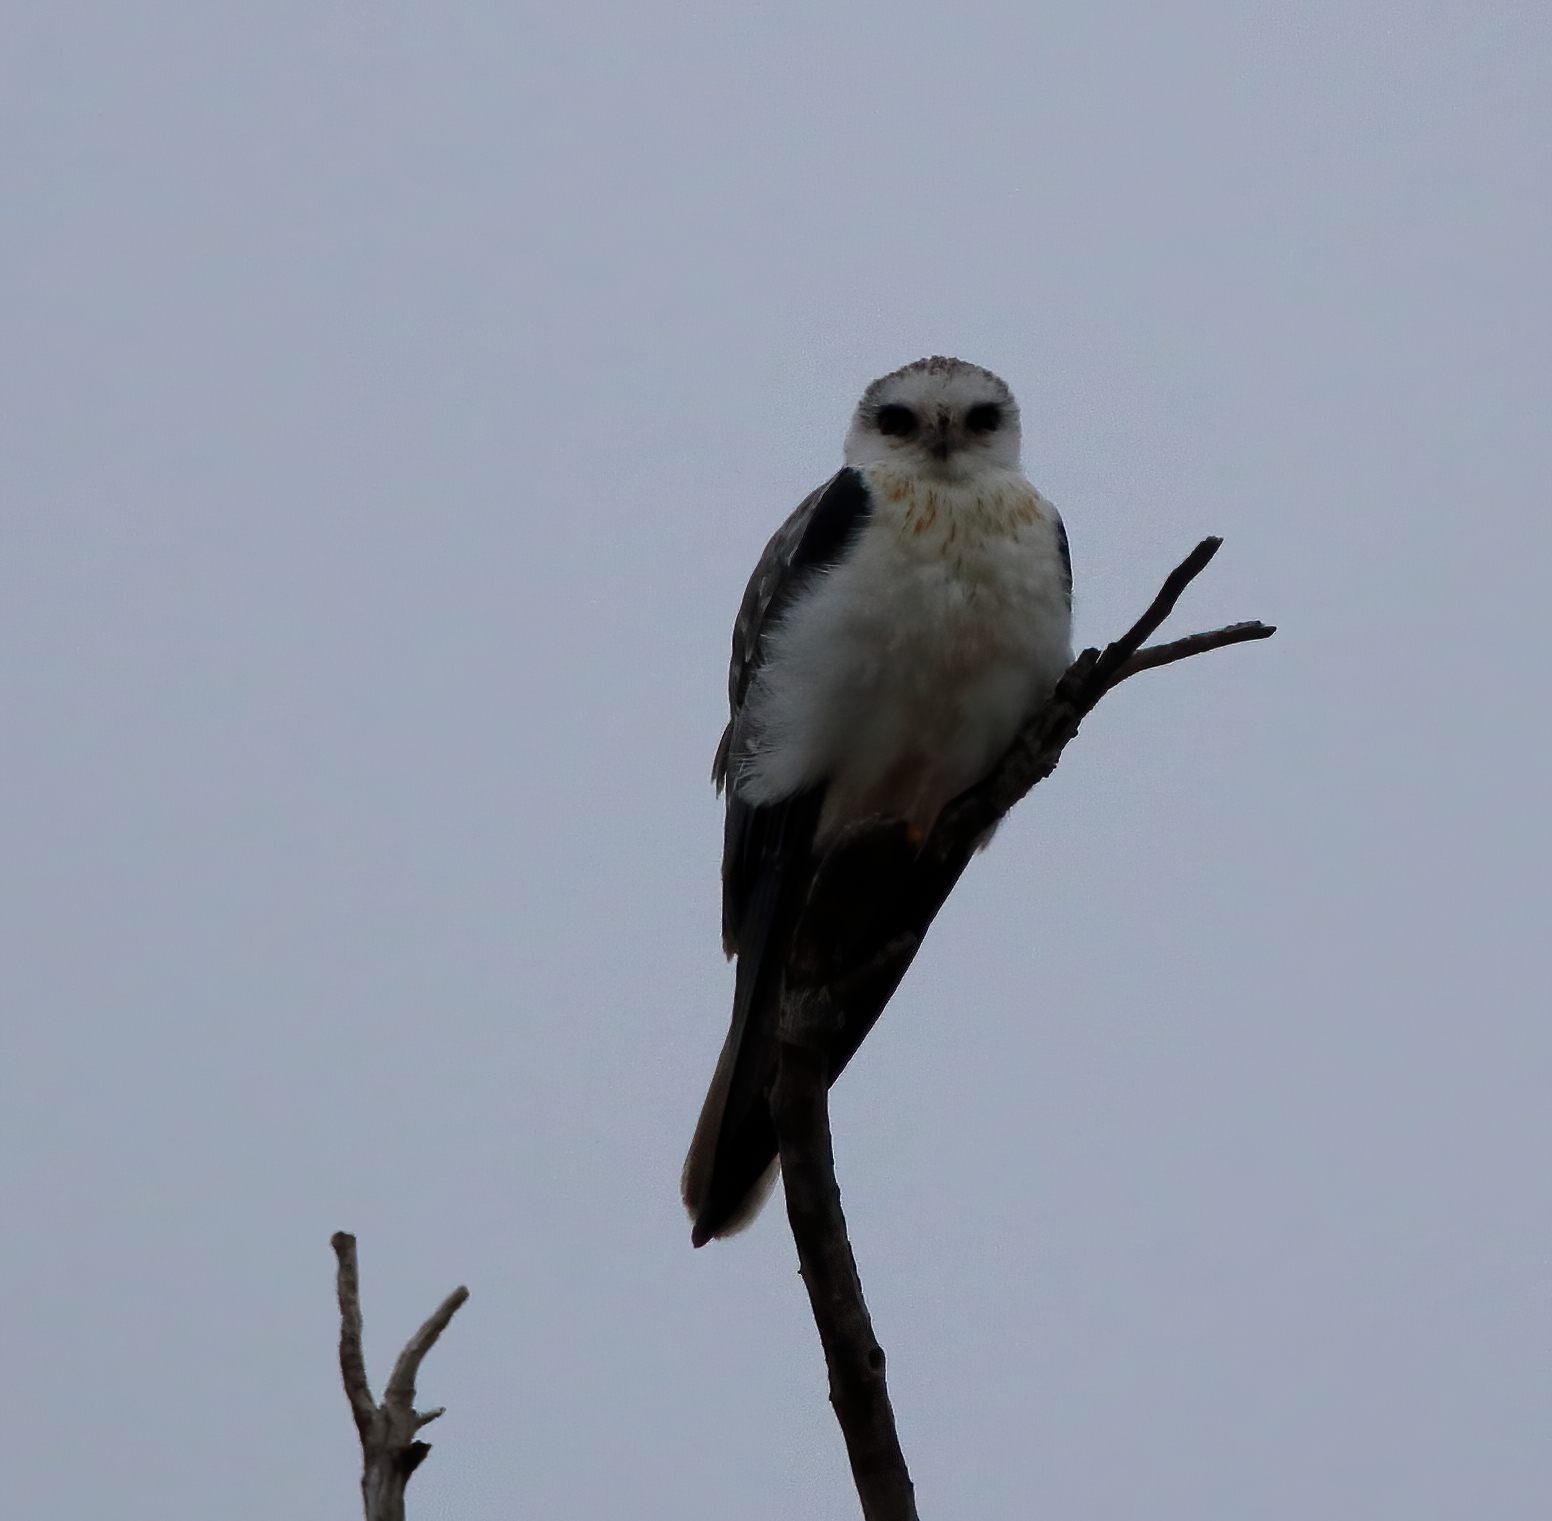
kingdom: Animalia
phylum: Chordata
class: Aves
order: Accipitriformes
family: Accipitridae
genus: Elanus
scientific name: Elanus leucurus
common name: White-tailed kite
